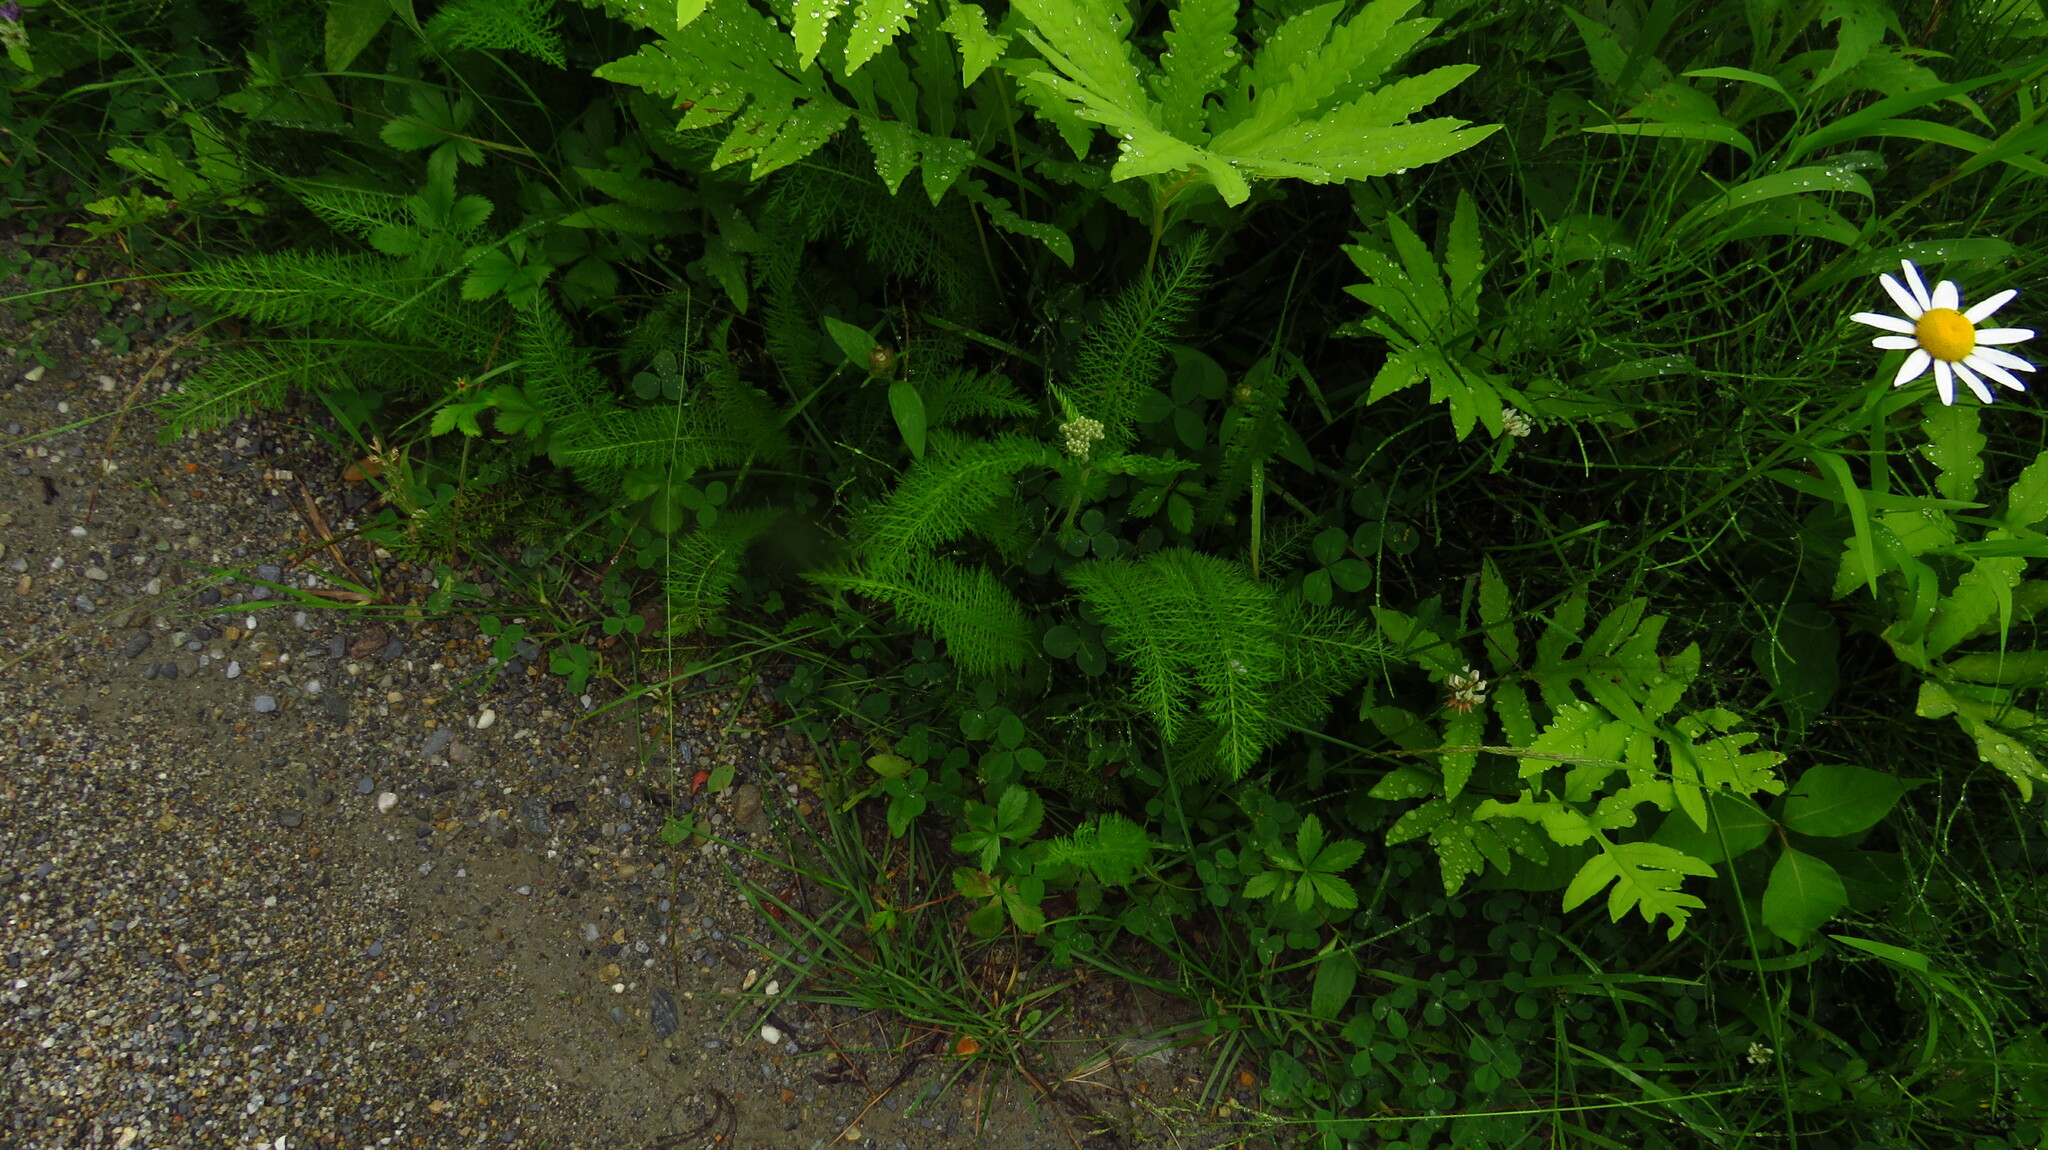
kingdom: Plantae
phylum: Tracheophyta
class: Magnoliopsida
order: Asterales
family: Asteraceae
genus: Achillea
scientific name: Achillea millefolium
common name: Yarrow
